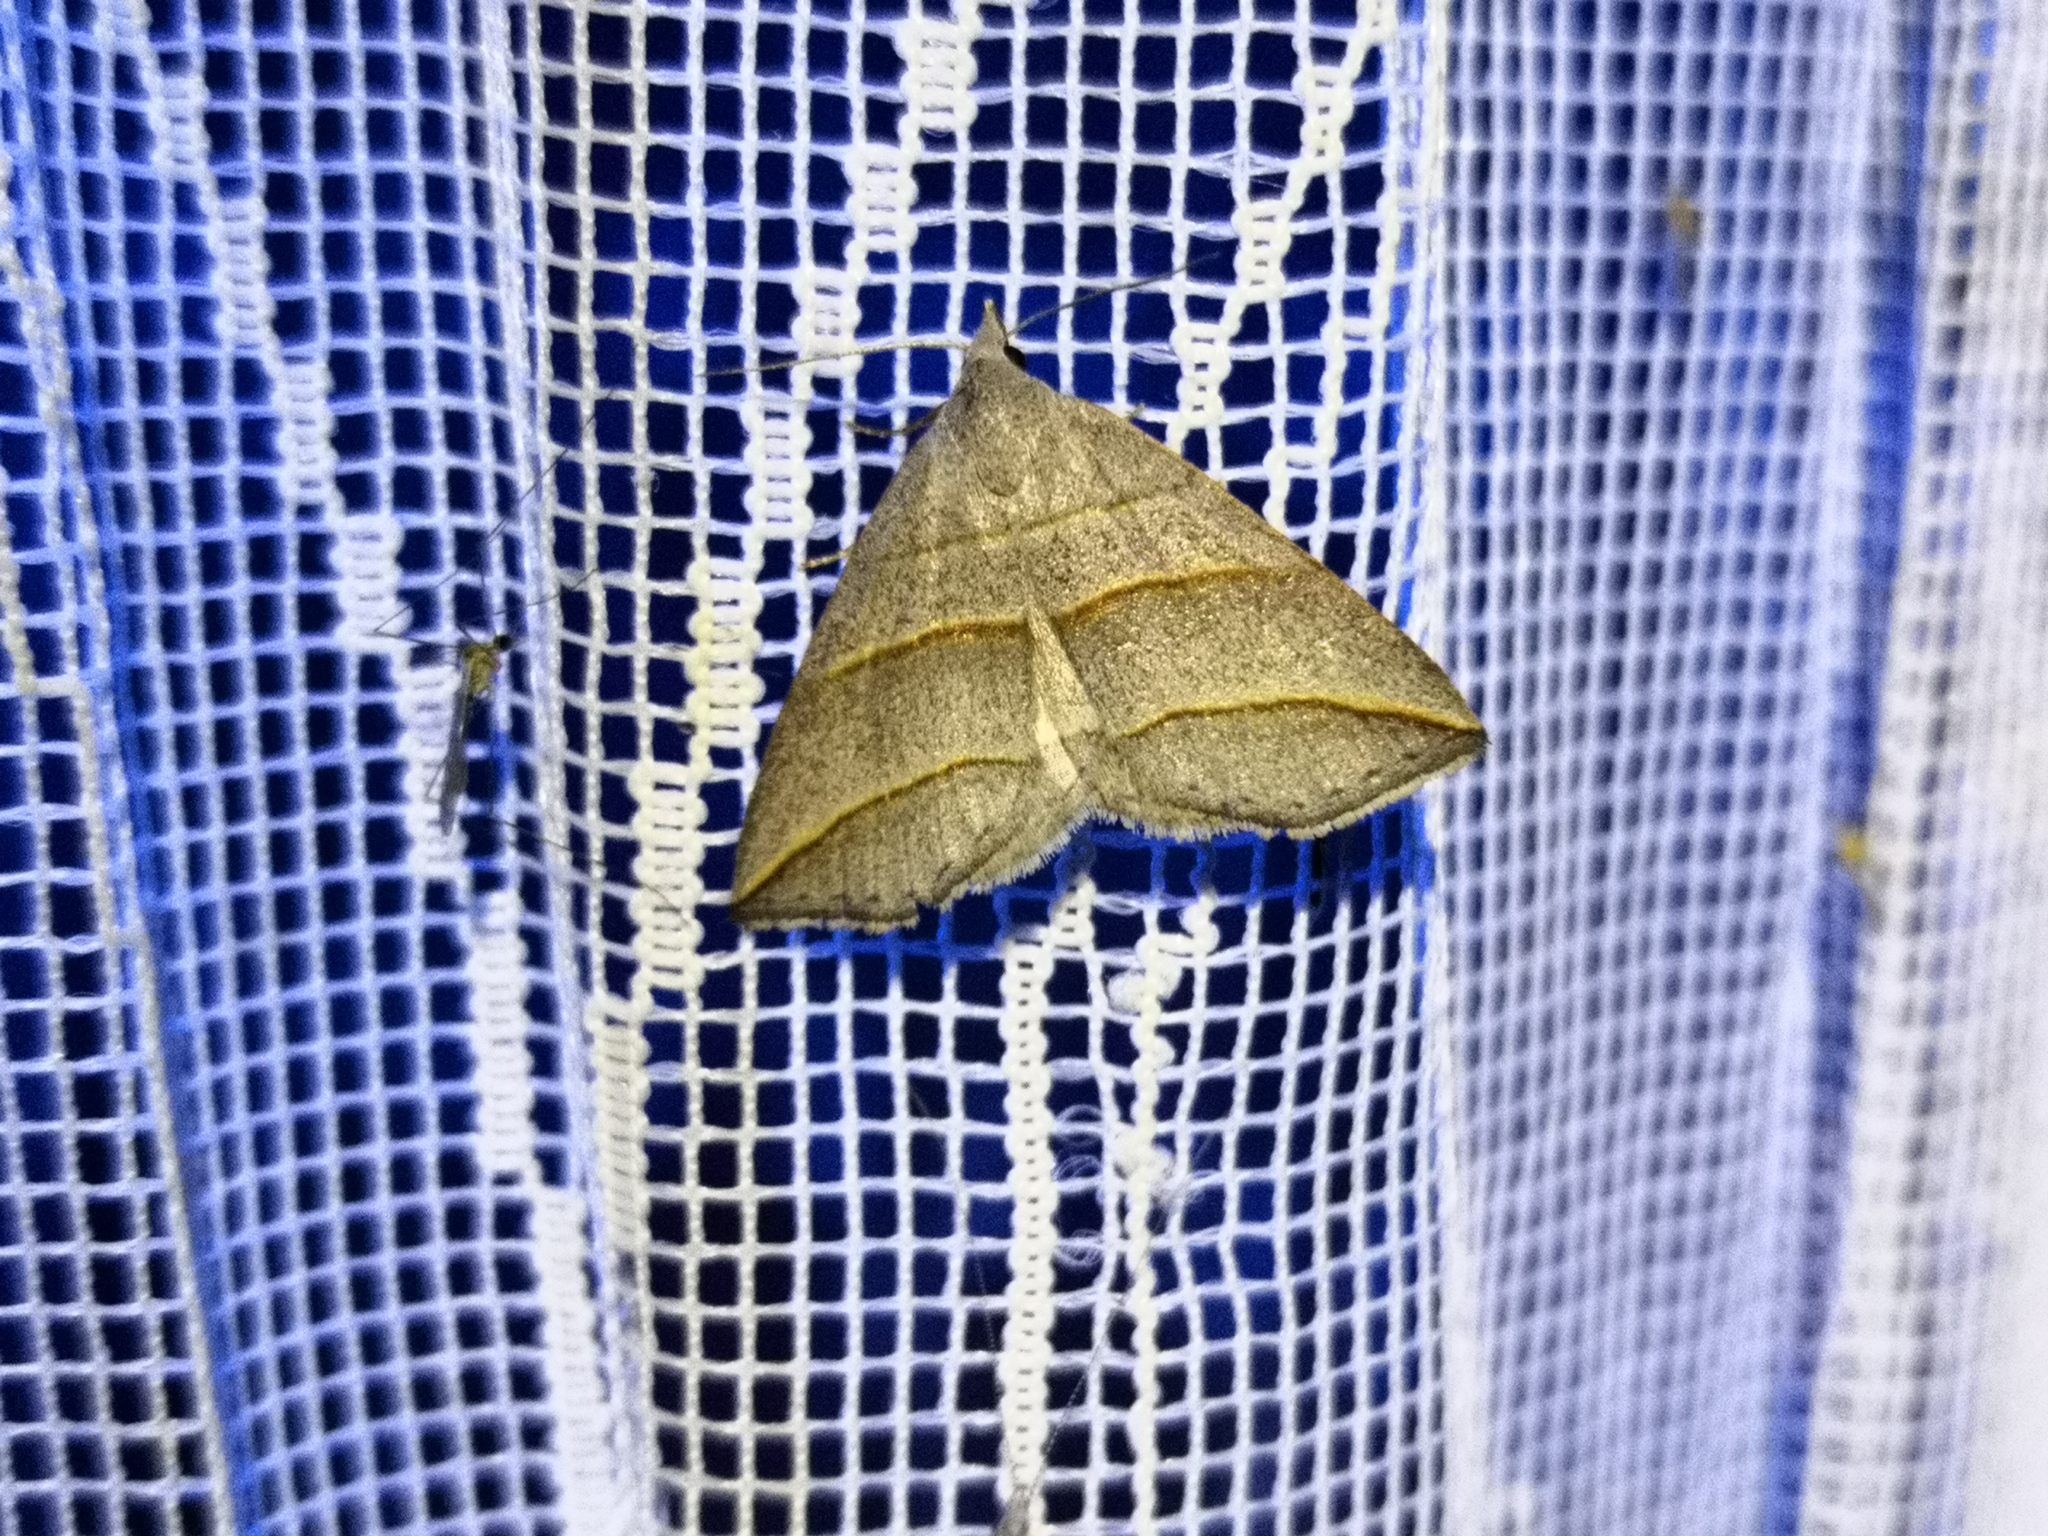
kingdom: Animalia
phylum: Arthropoda
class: Insecta
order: Lepidoptera
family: Erebidae
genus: Colobochyla
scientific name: Colobochyla salicalis
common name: Lesser belle
